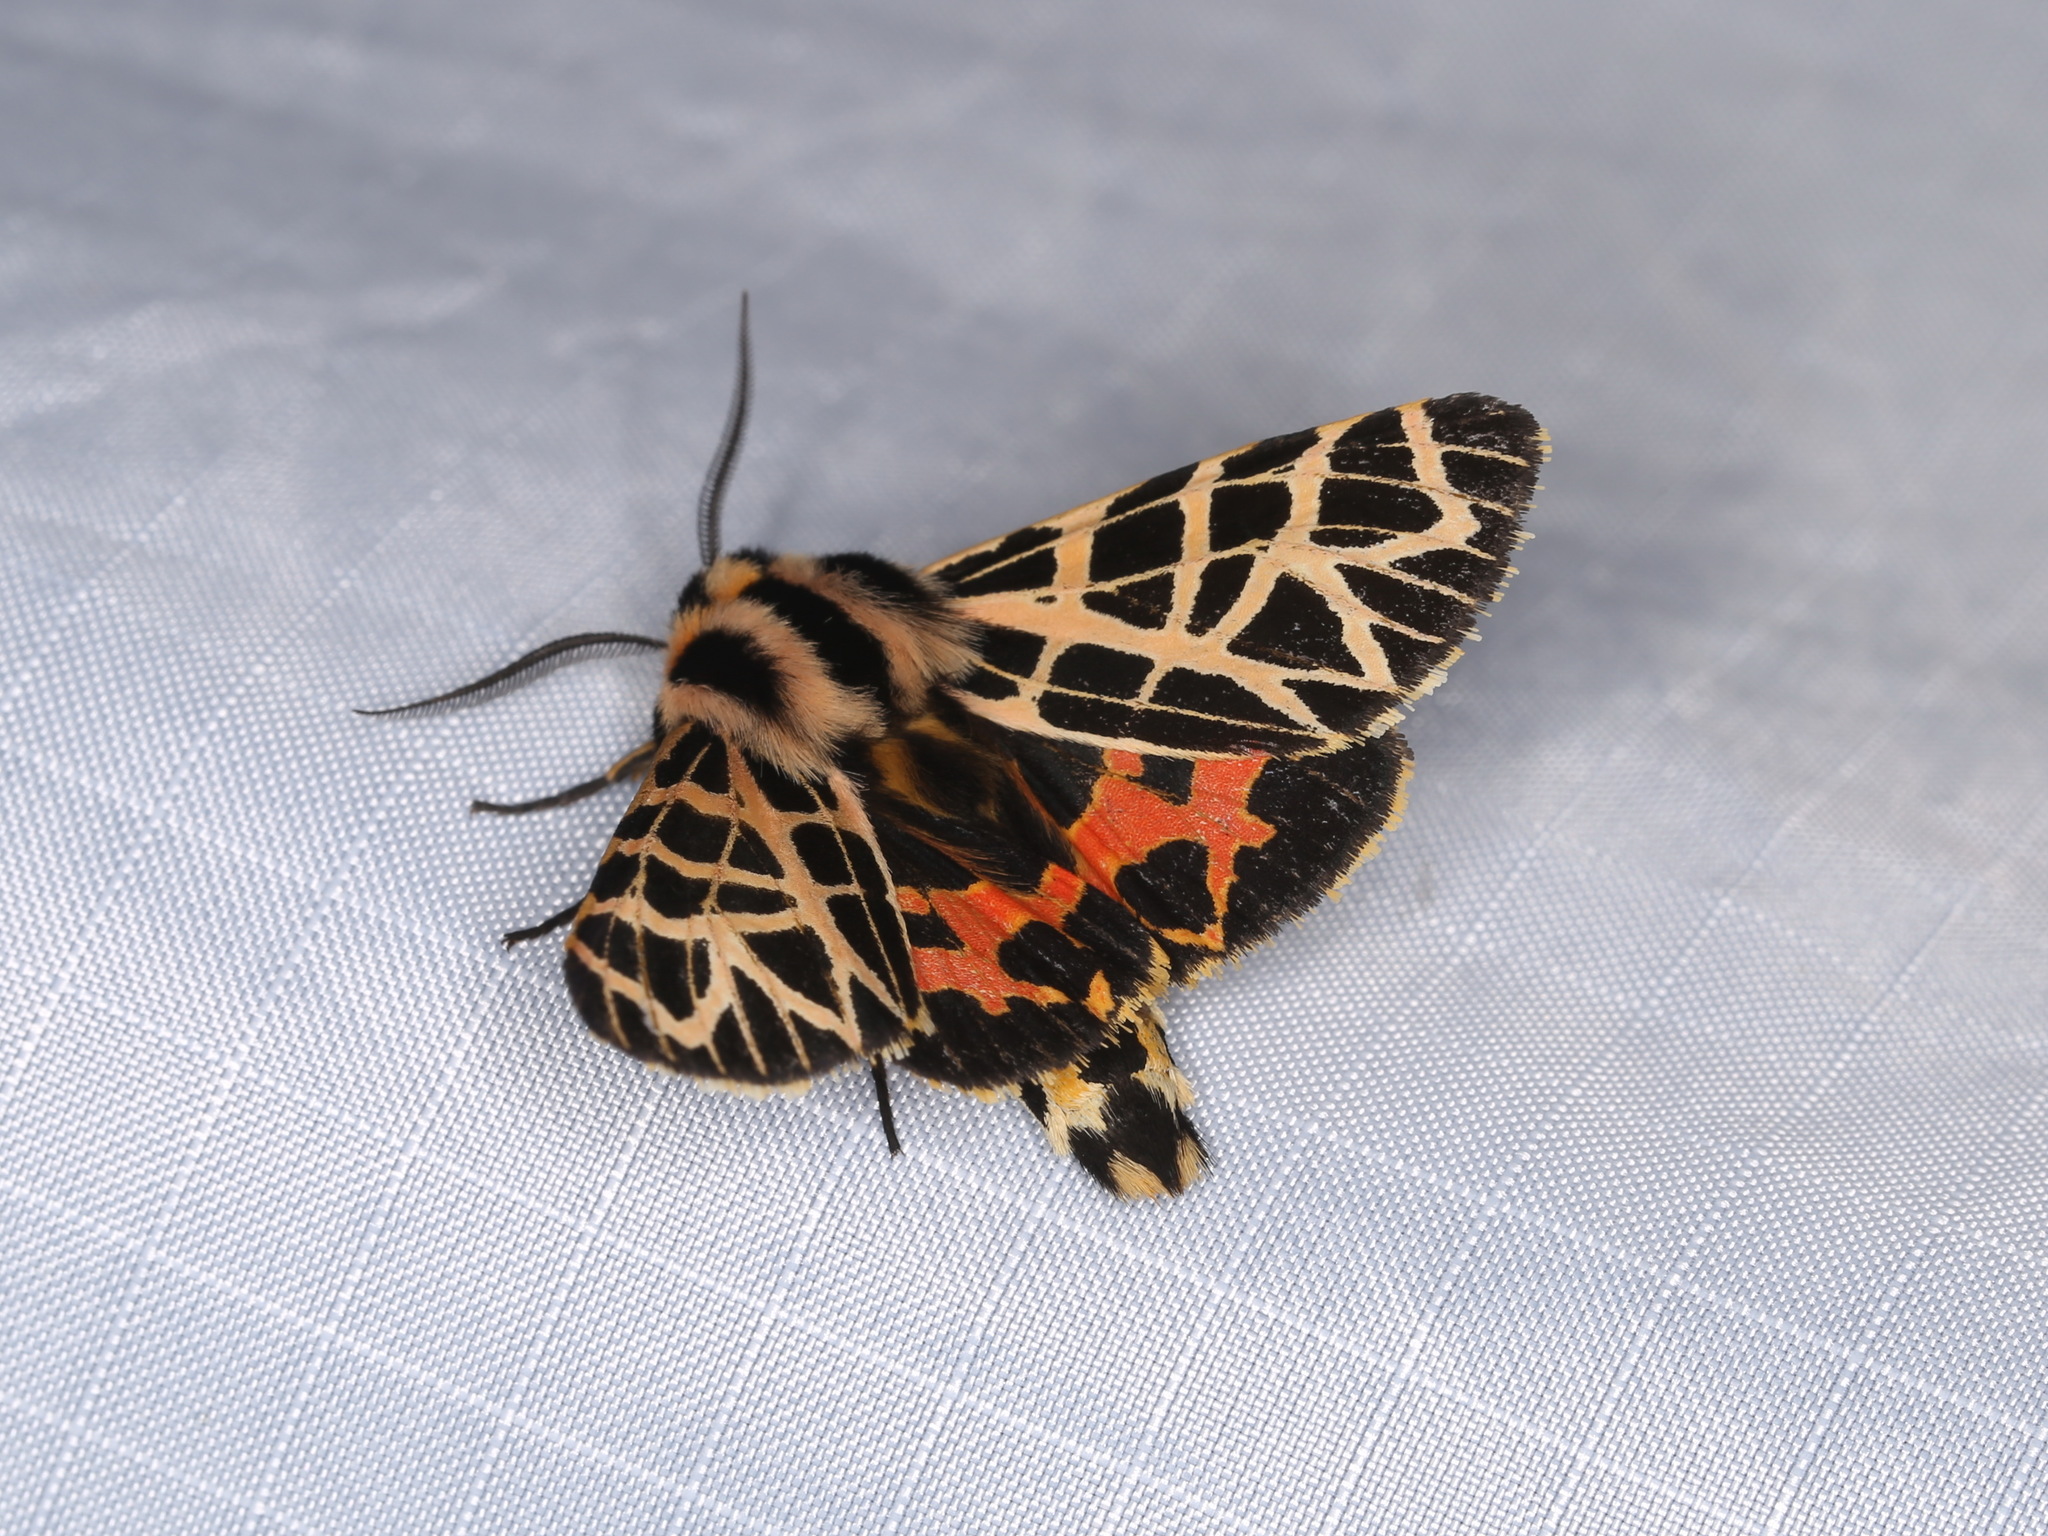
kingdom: Animalia
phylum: Arthropoda
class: Insecta
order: Lepidoptera
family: Erebidae
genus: Apantesis
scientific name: Apantesis
